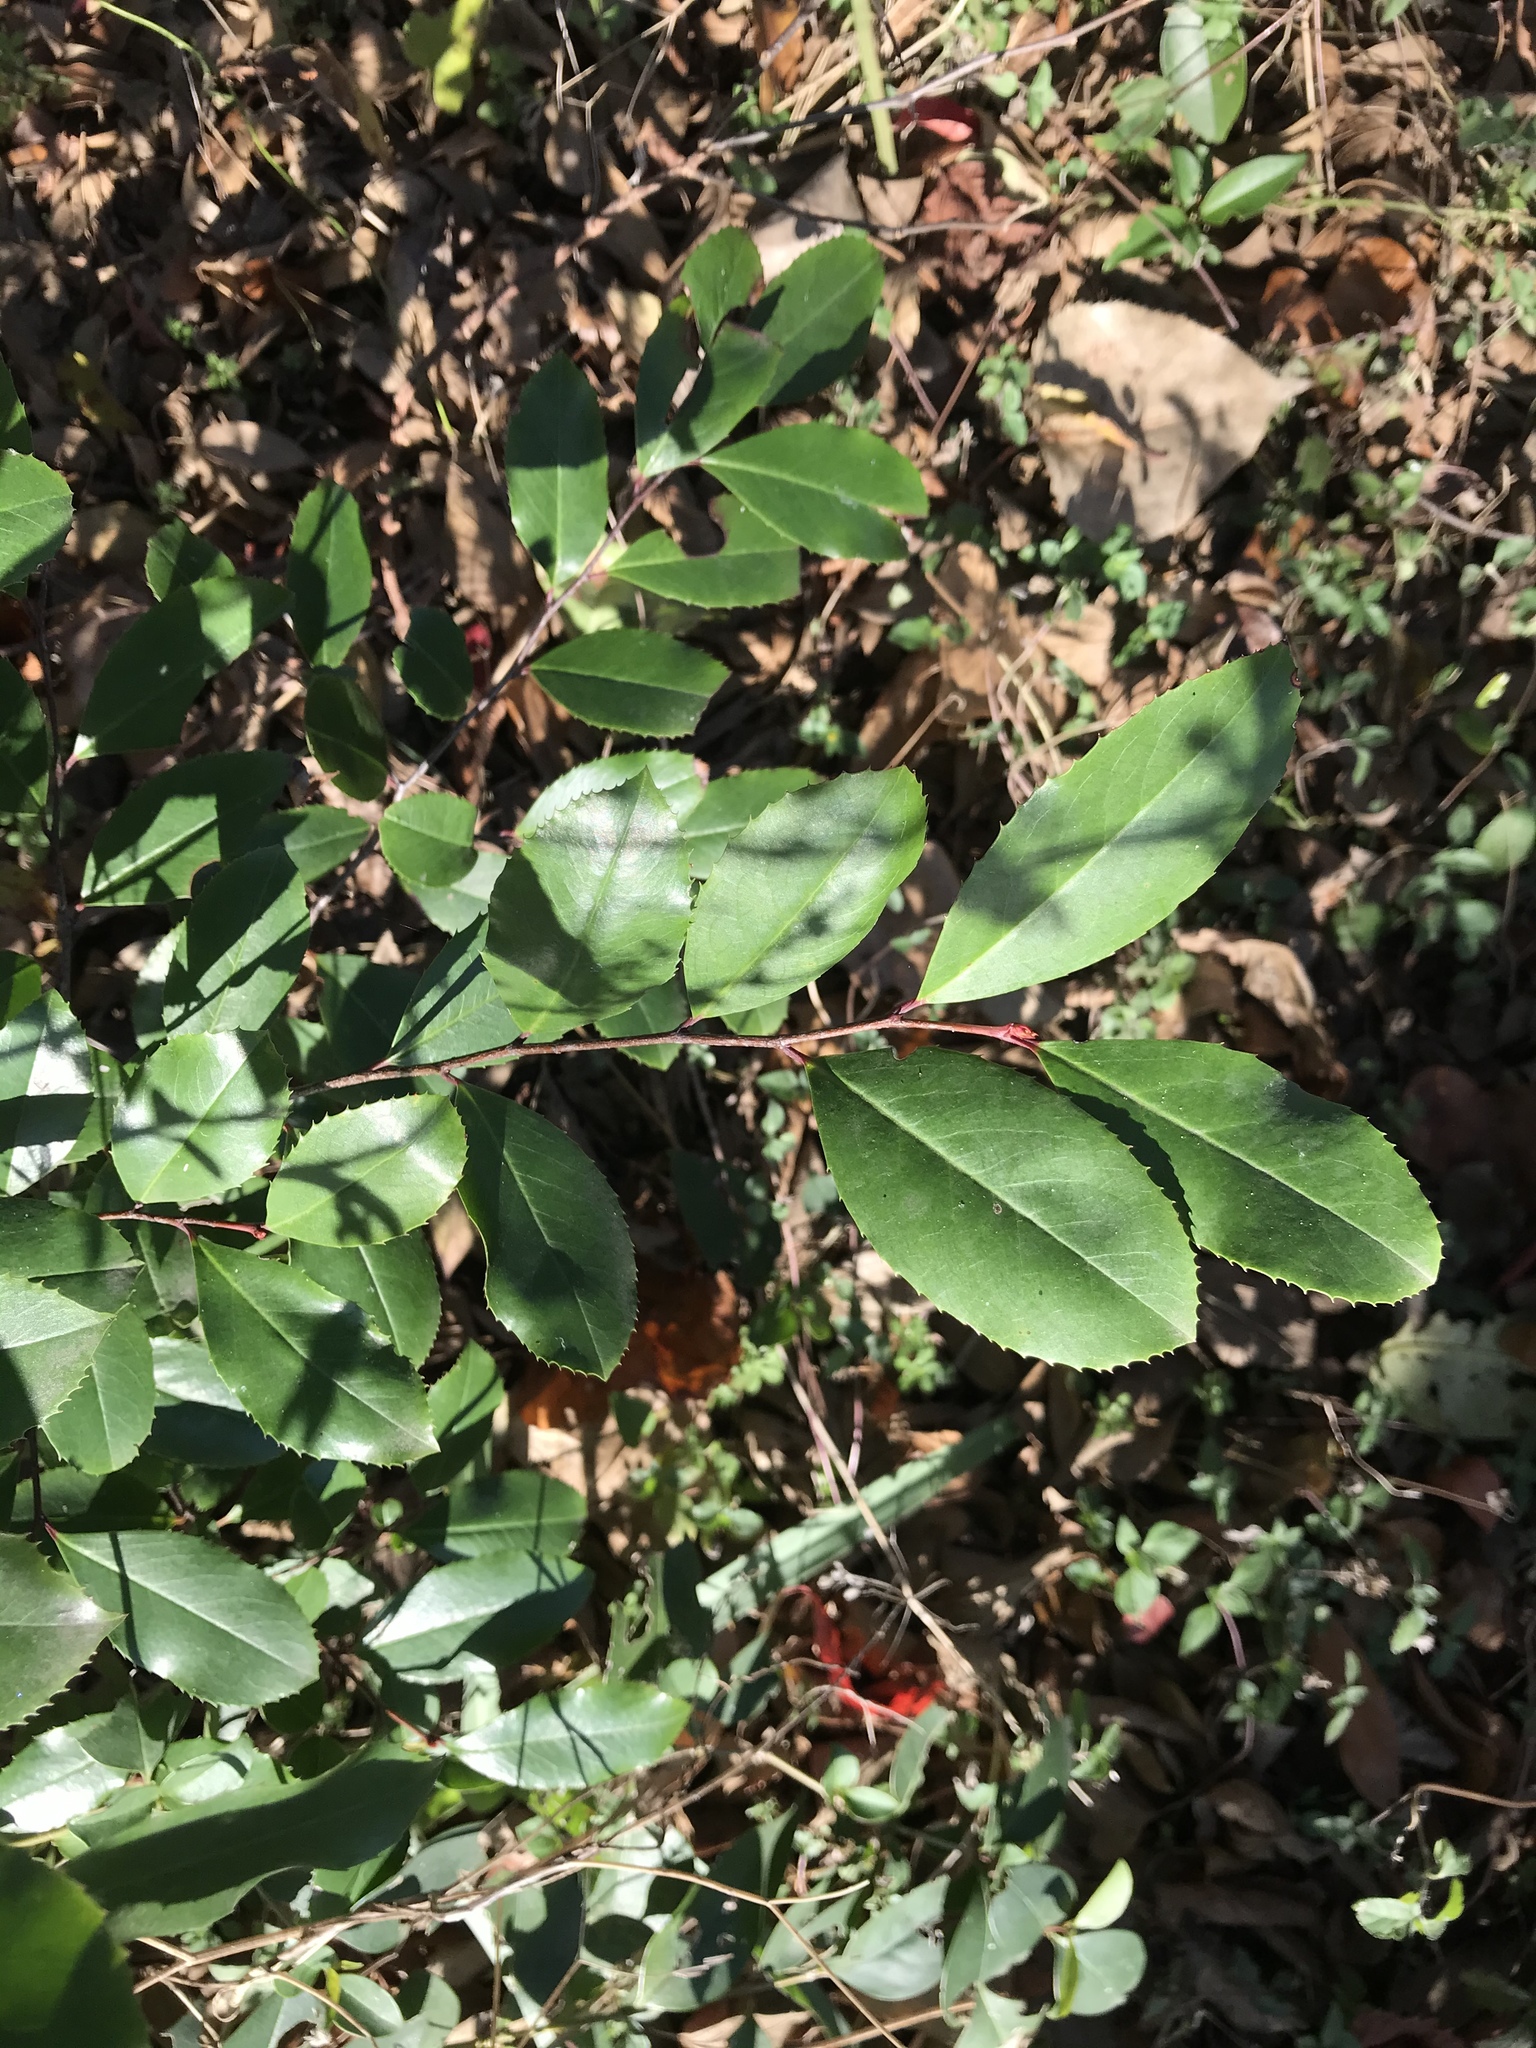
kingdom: Plantae
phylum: Tracheophyta
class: Magnoliopsida
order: Rosales
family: Rosaceae
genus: Prunus
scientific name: Prunus caroliniana
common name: Carolina laurel cherry
